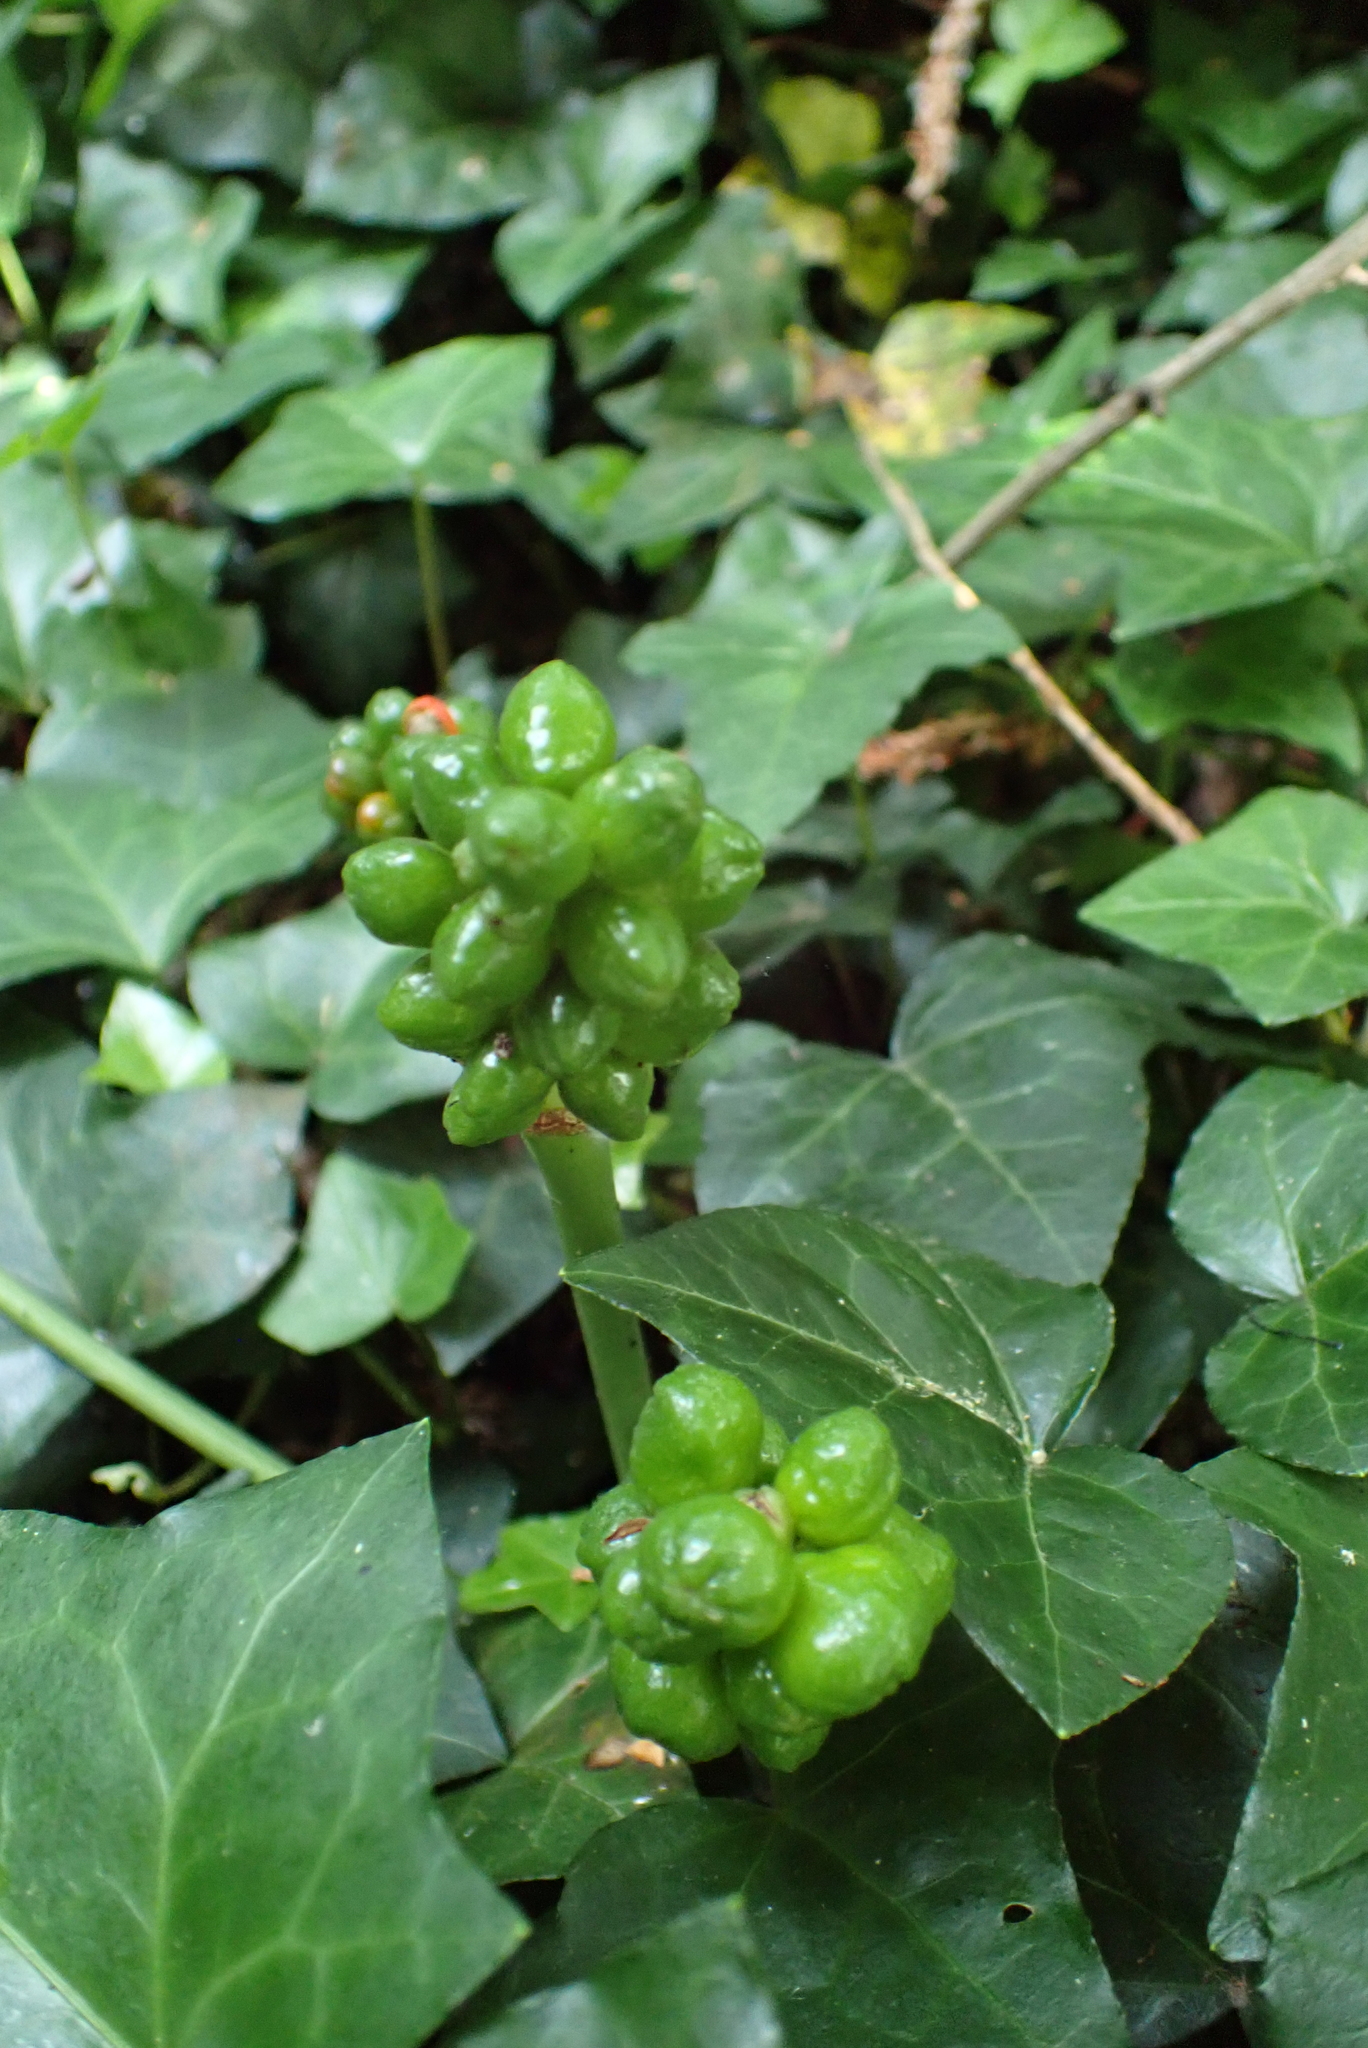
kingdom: Plantae
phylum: Tracheophyta
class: Liliopsida
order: Alismatales
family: Araceae
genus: Arum
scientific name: Arum maculatum
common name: Lords-and-ladies
